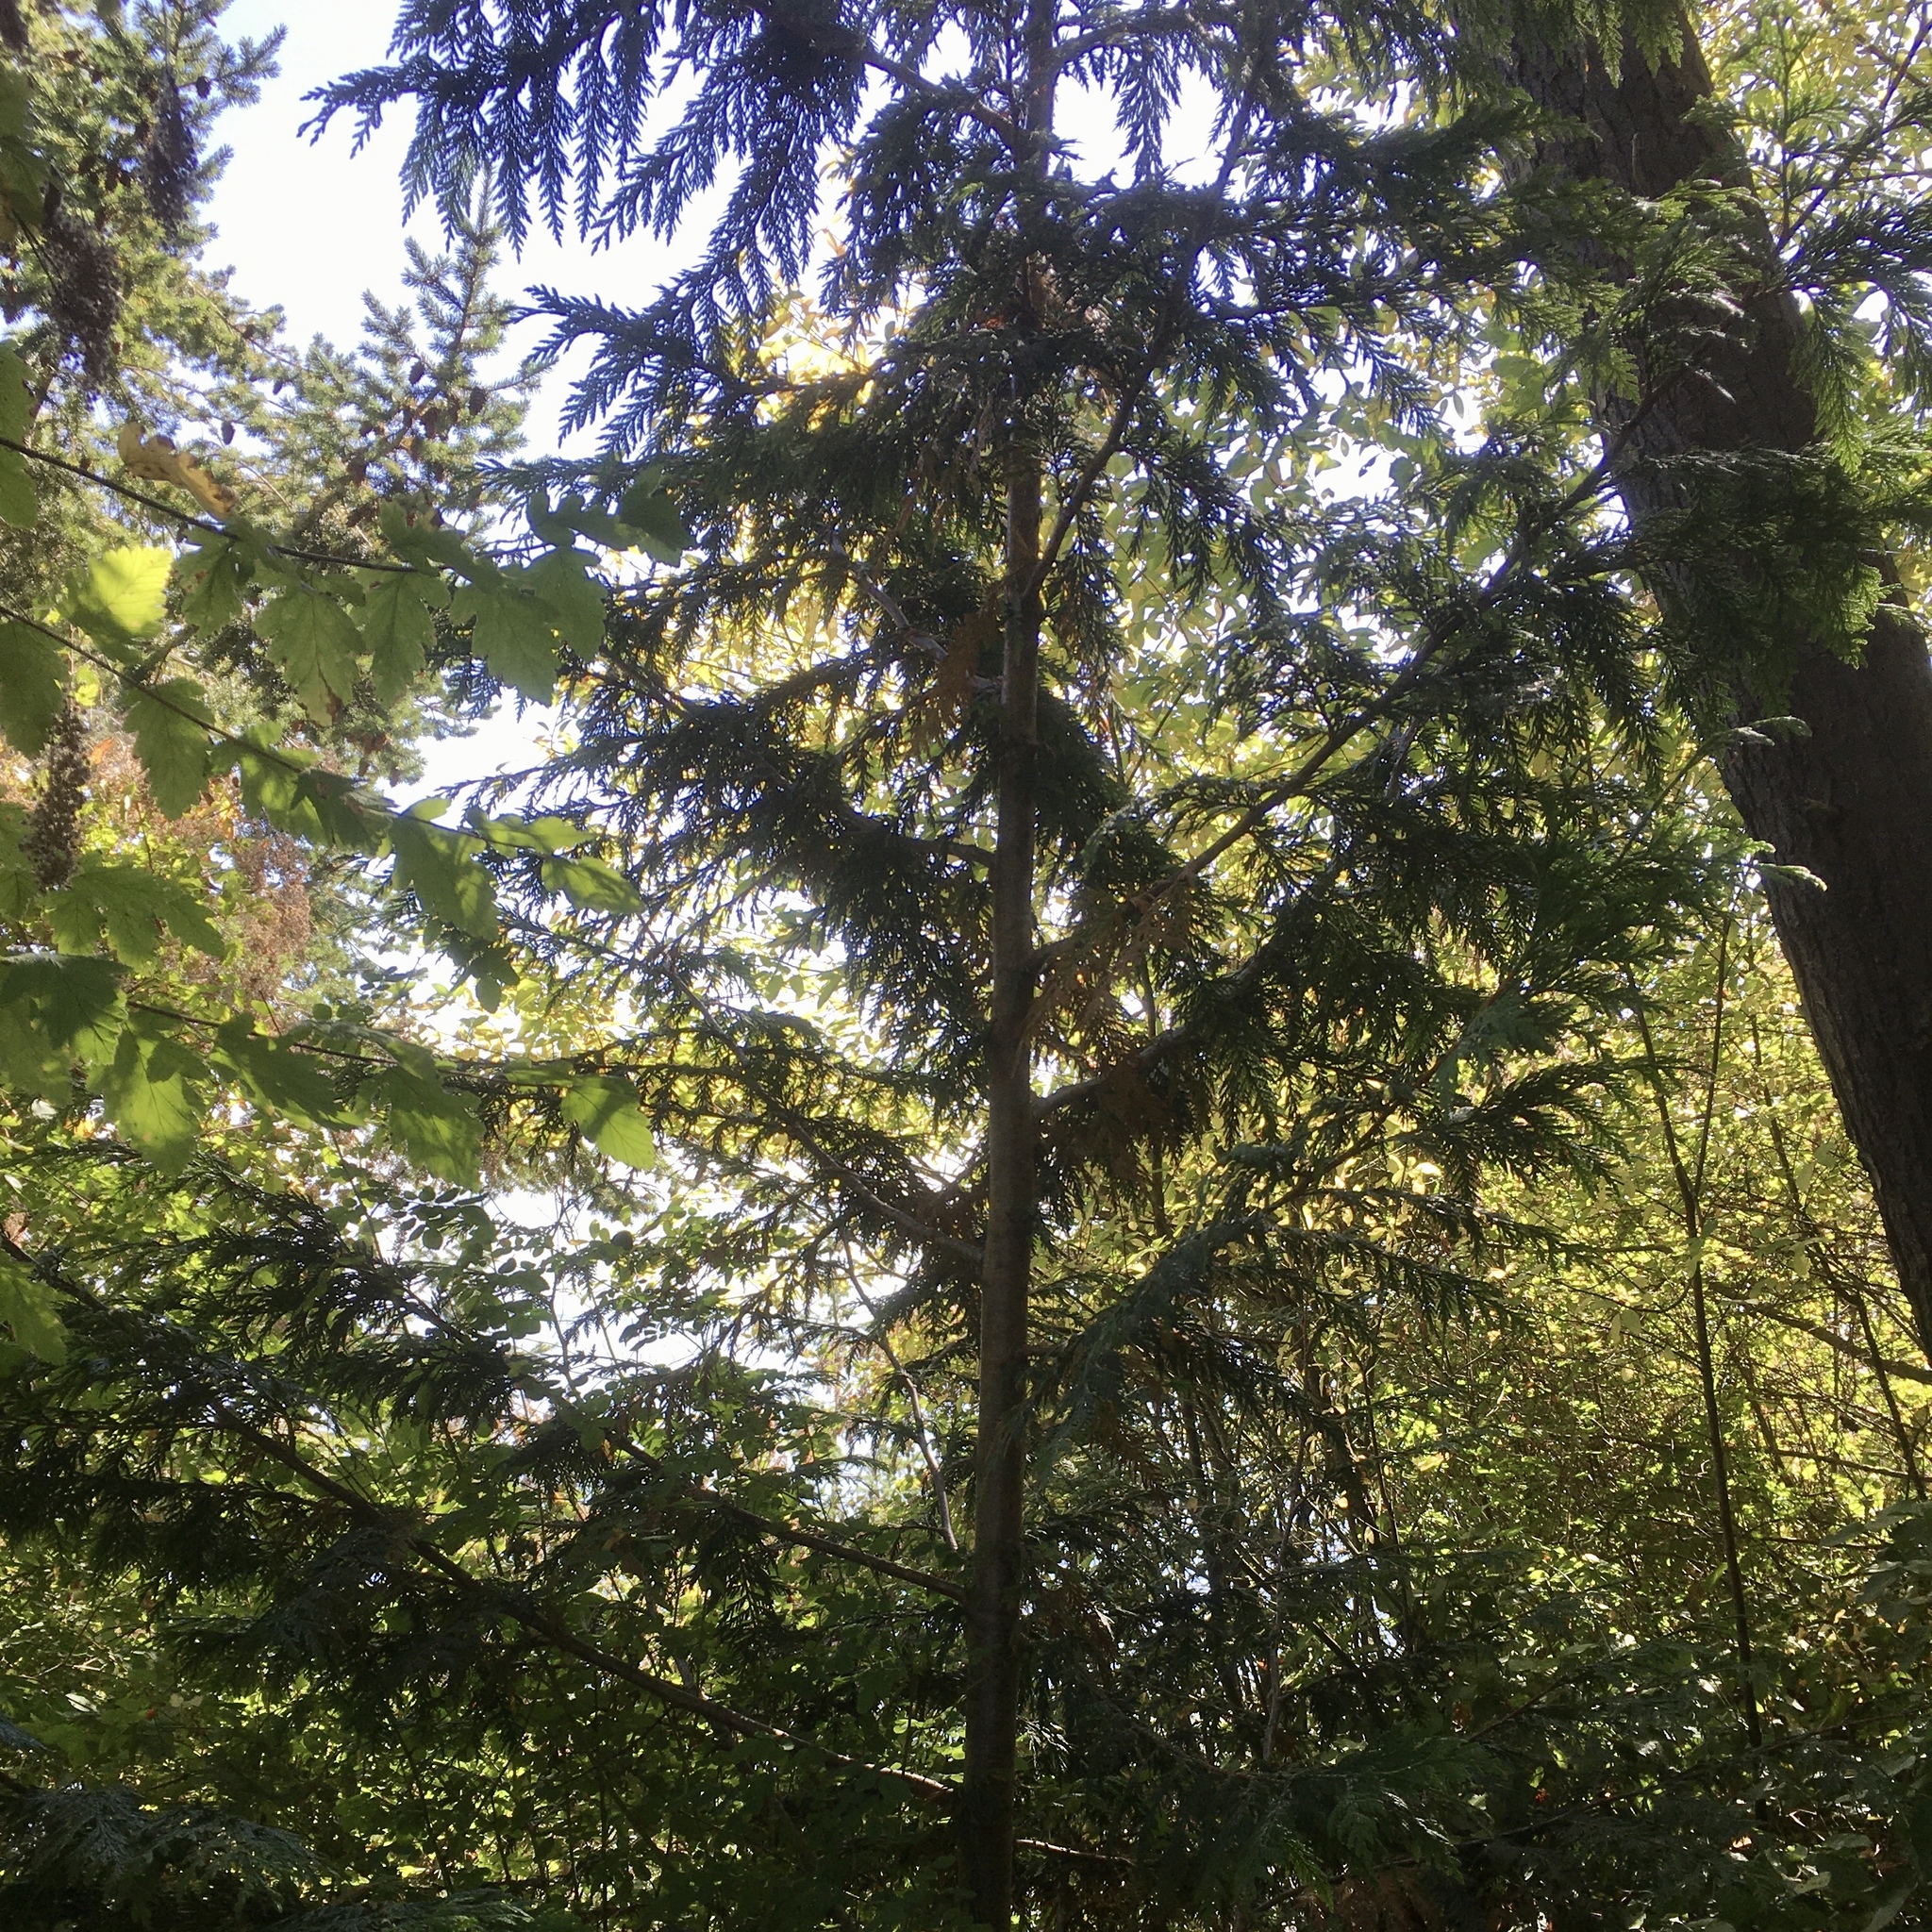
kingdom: Plantae
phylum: Tracheophyta
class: Pinopsida
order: Pinales
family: Cupressaceae
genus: Thuja
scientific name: Thuja plicata
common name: Western red-cedar
